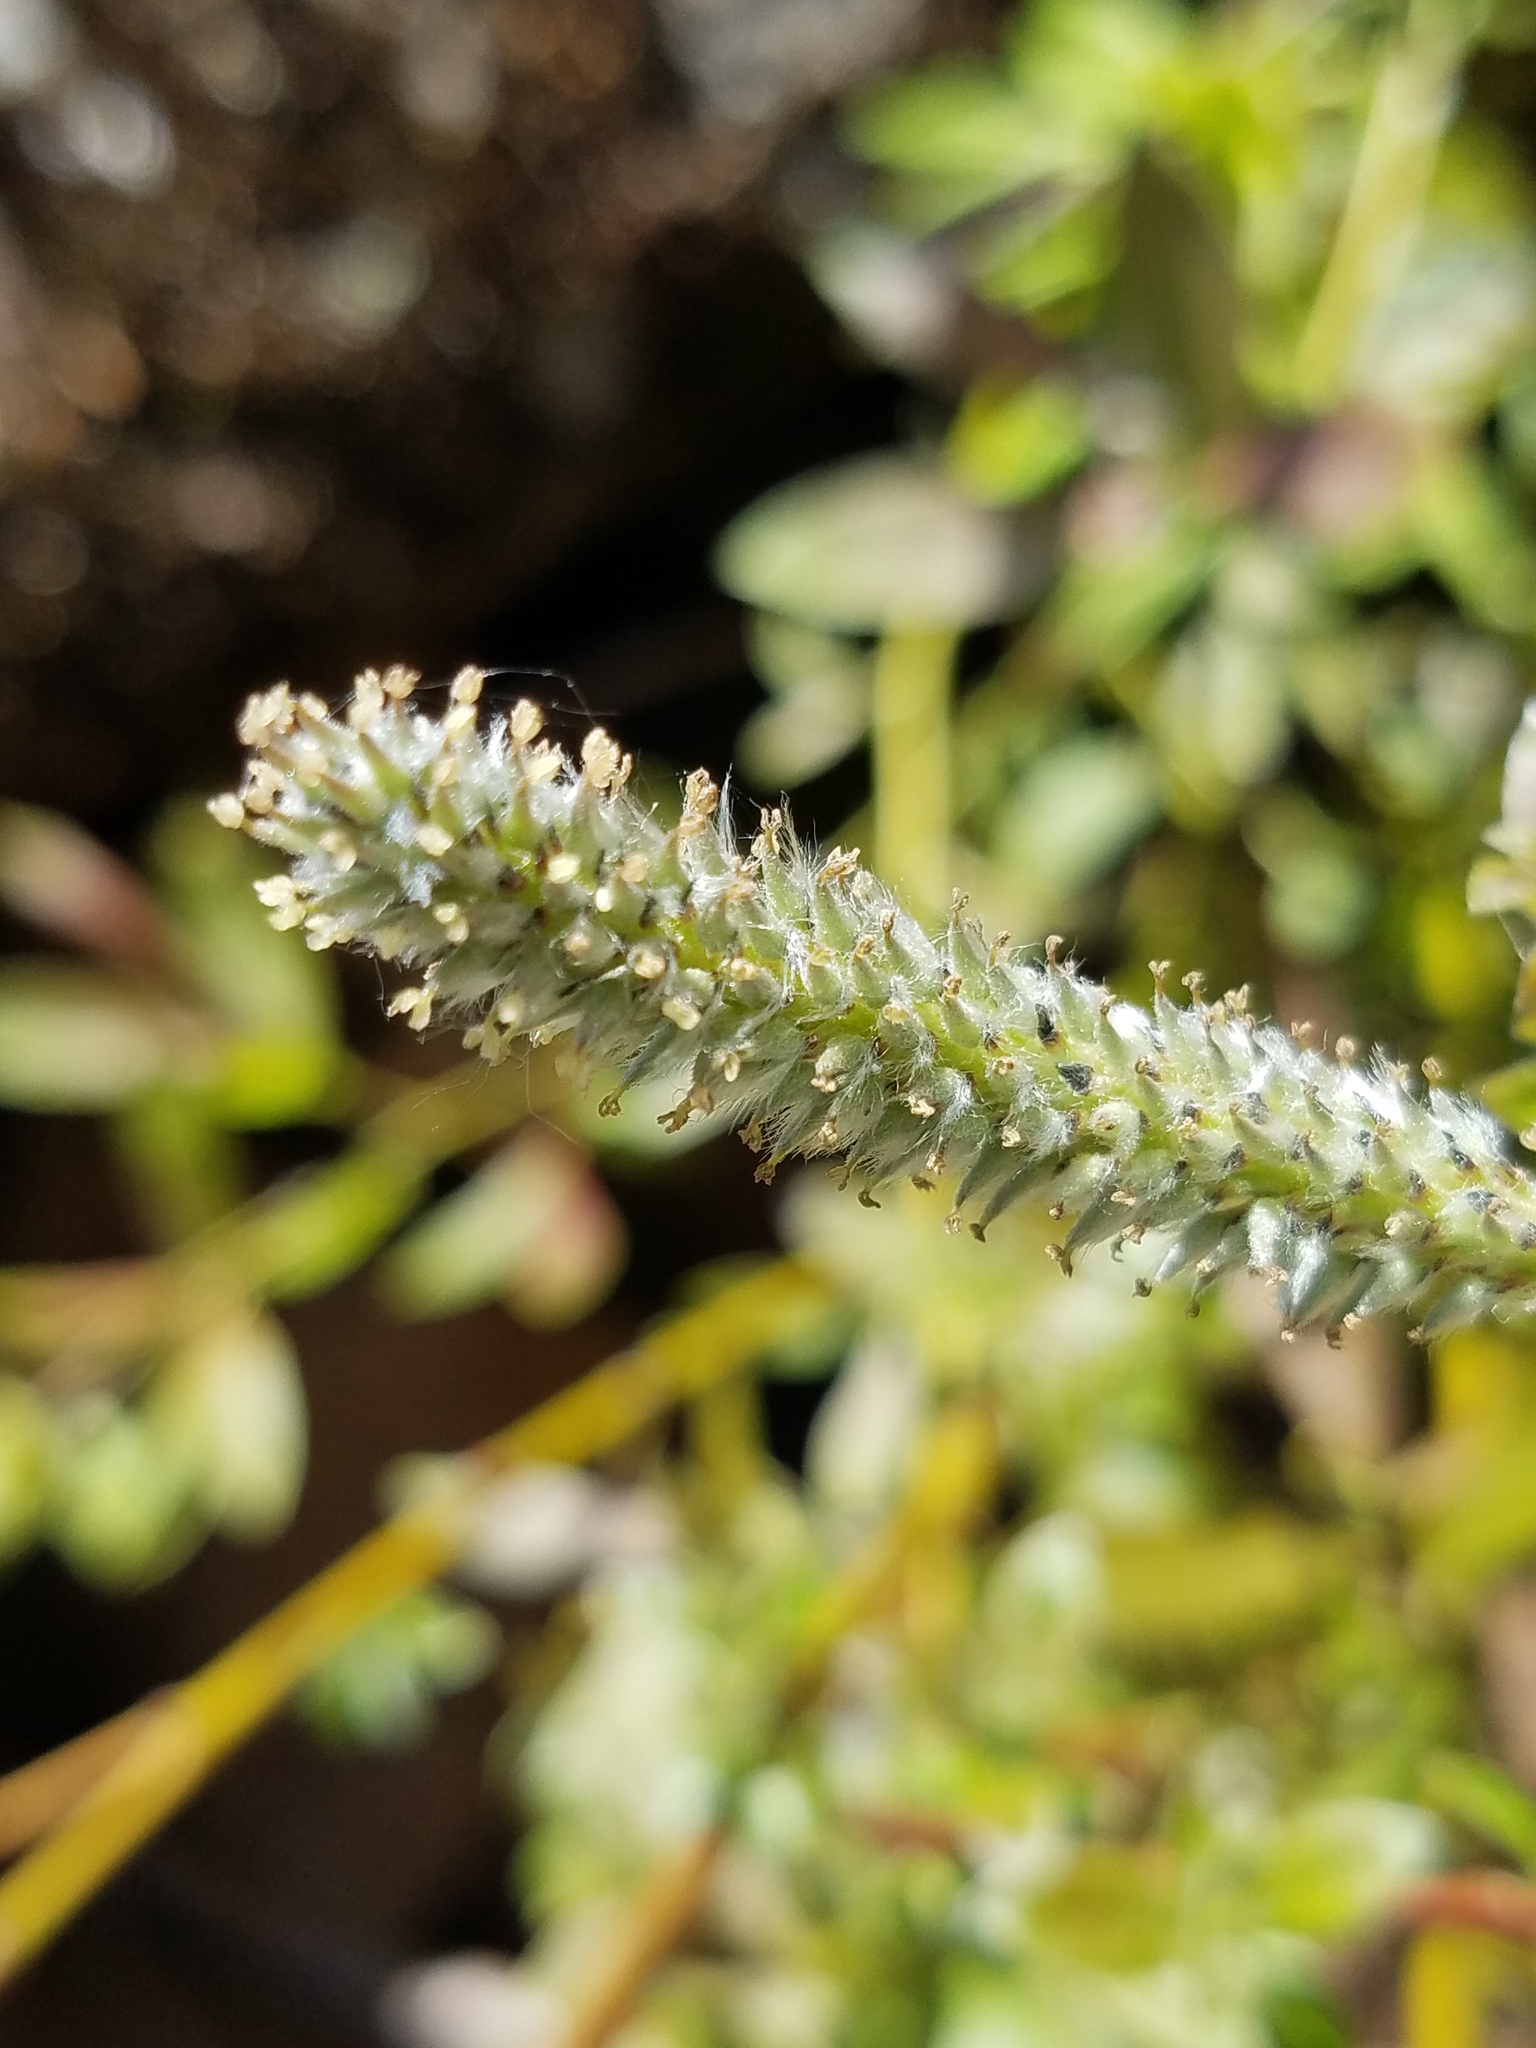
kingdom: Plantae
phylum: Tracheophyta
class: Magnoliopsida
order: Malpighiales
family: Salicaceae
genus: Salix
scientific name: Salix discolor
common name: Glaucous willow
